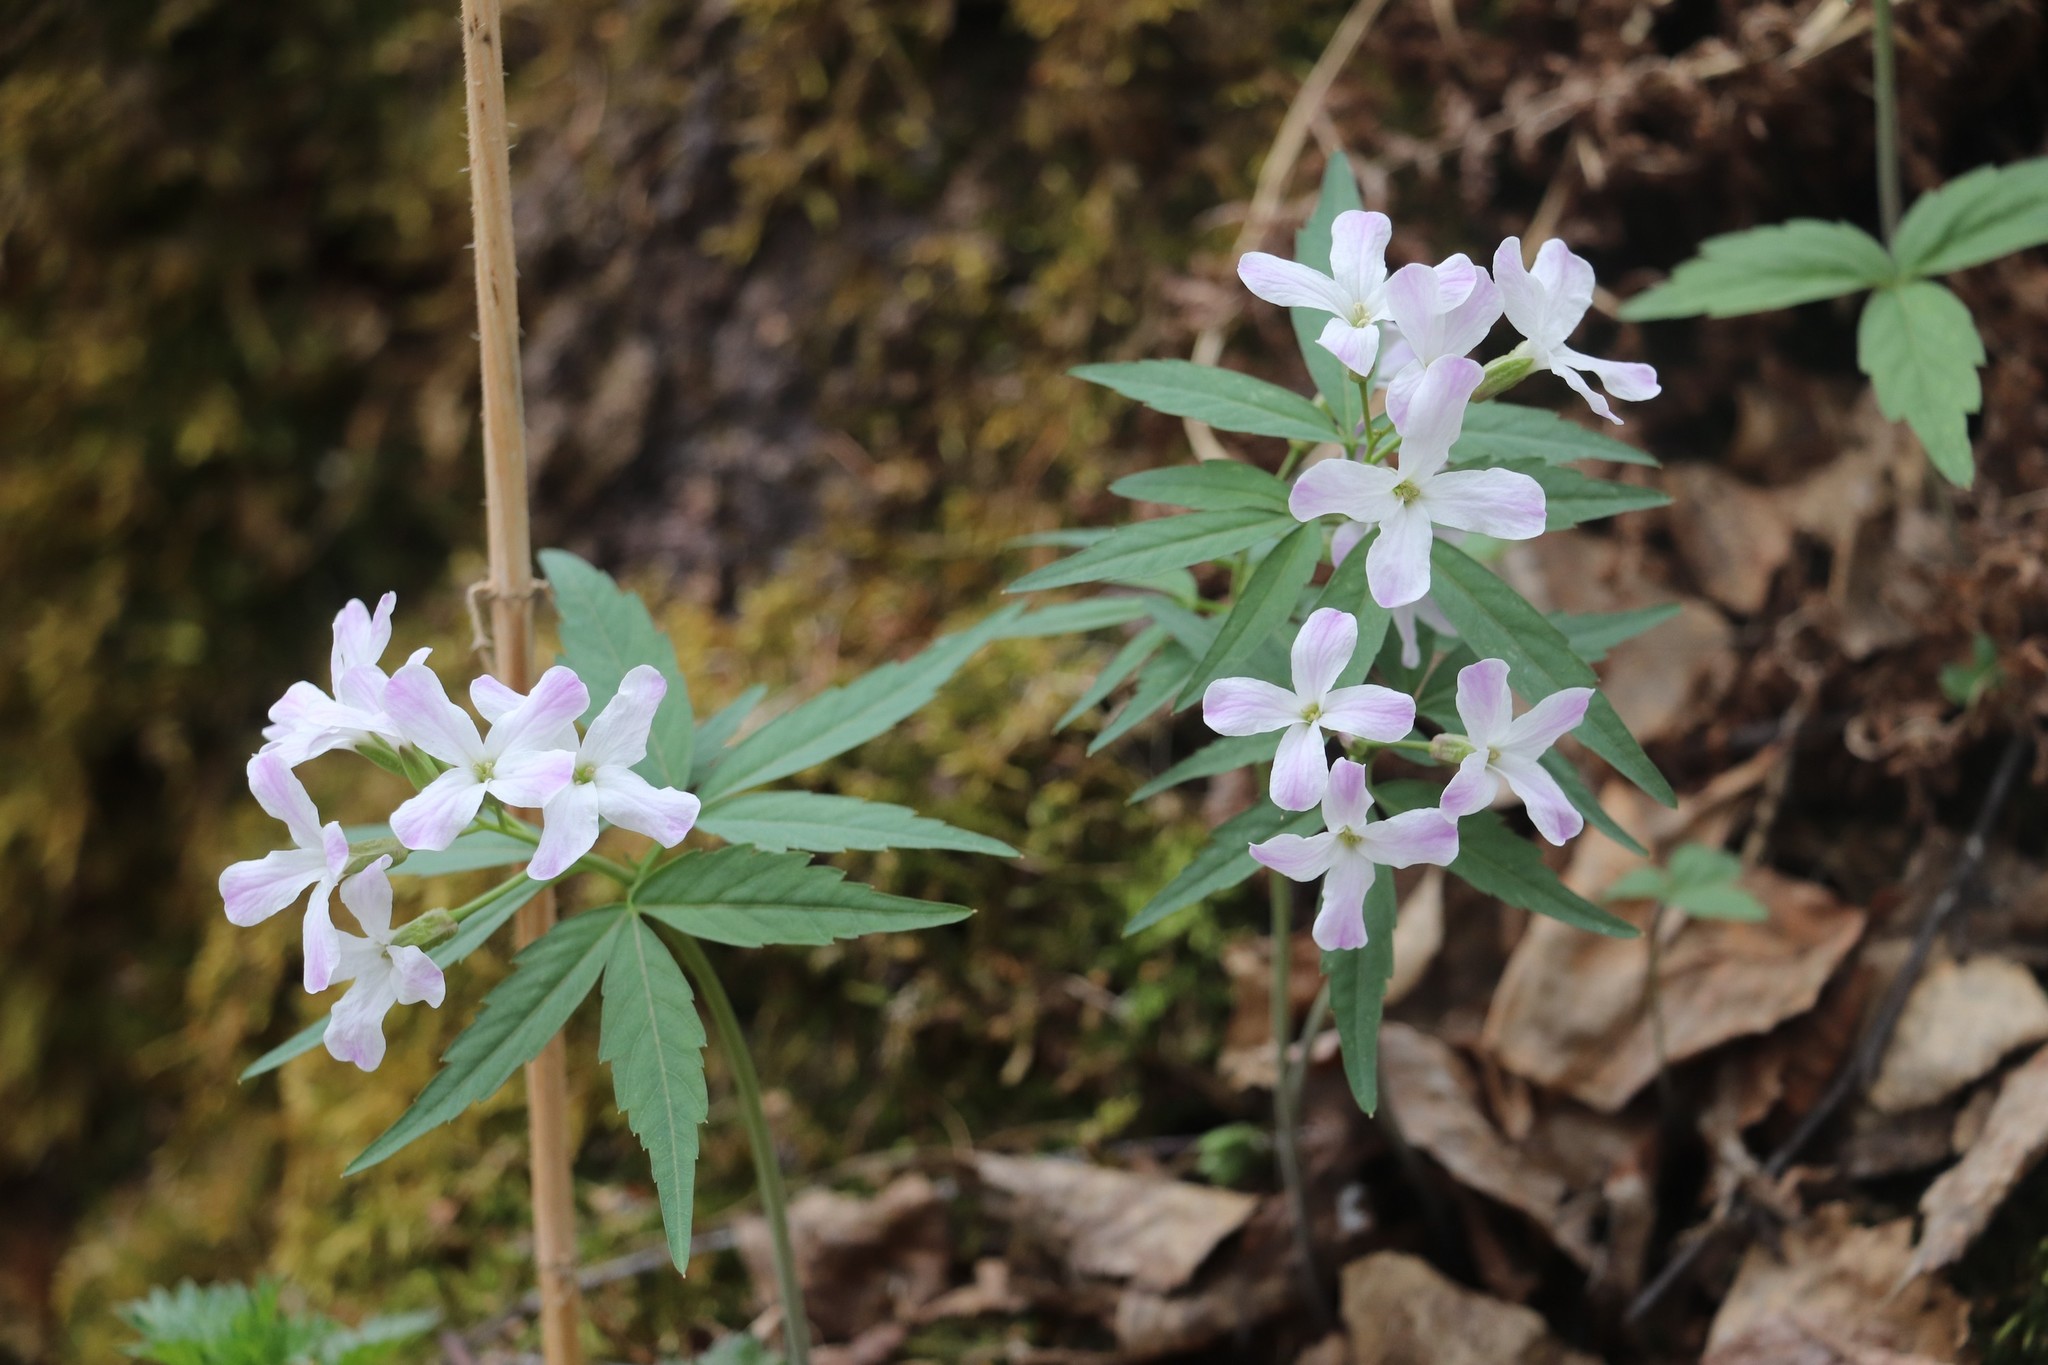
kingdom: Plantae
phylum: Tracheophyta
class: Magnoliopsida
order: Brassicales
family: Brassicaceae
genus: Cardamine
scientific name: Cardamine altaica
